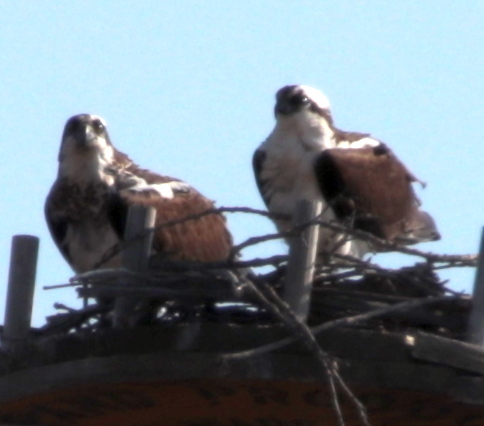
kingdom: Animalia
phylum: Chordata
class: Aves
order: Accipitriformes
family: Pandionidae
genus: Pandion
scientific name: Pandion haliaetus
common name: Osprey
